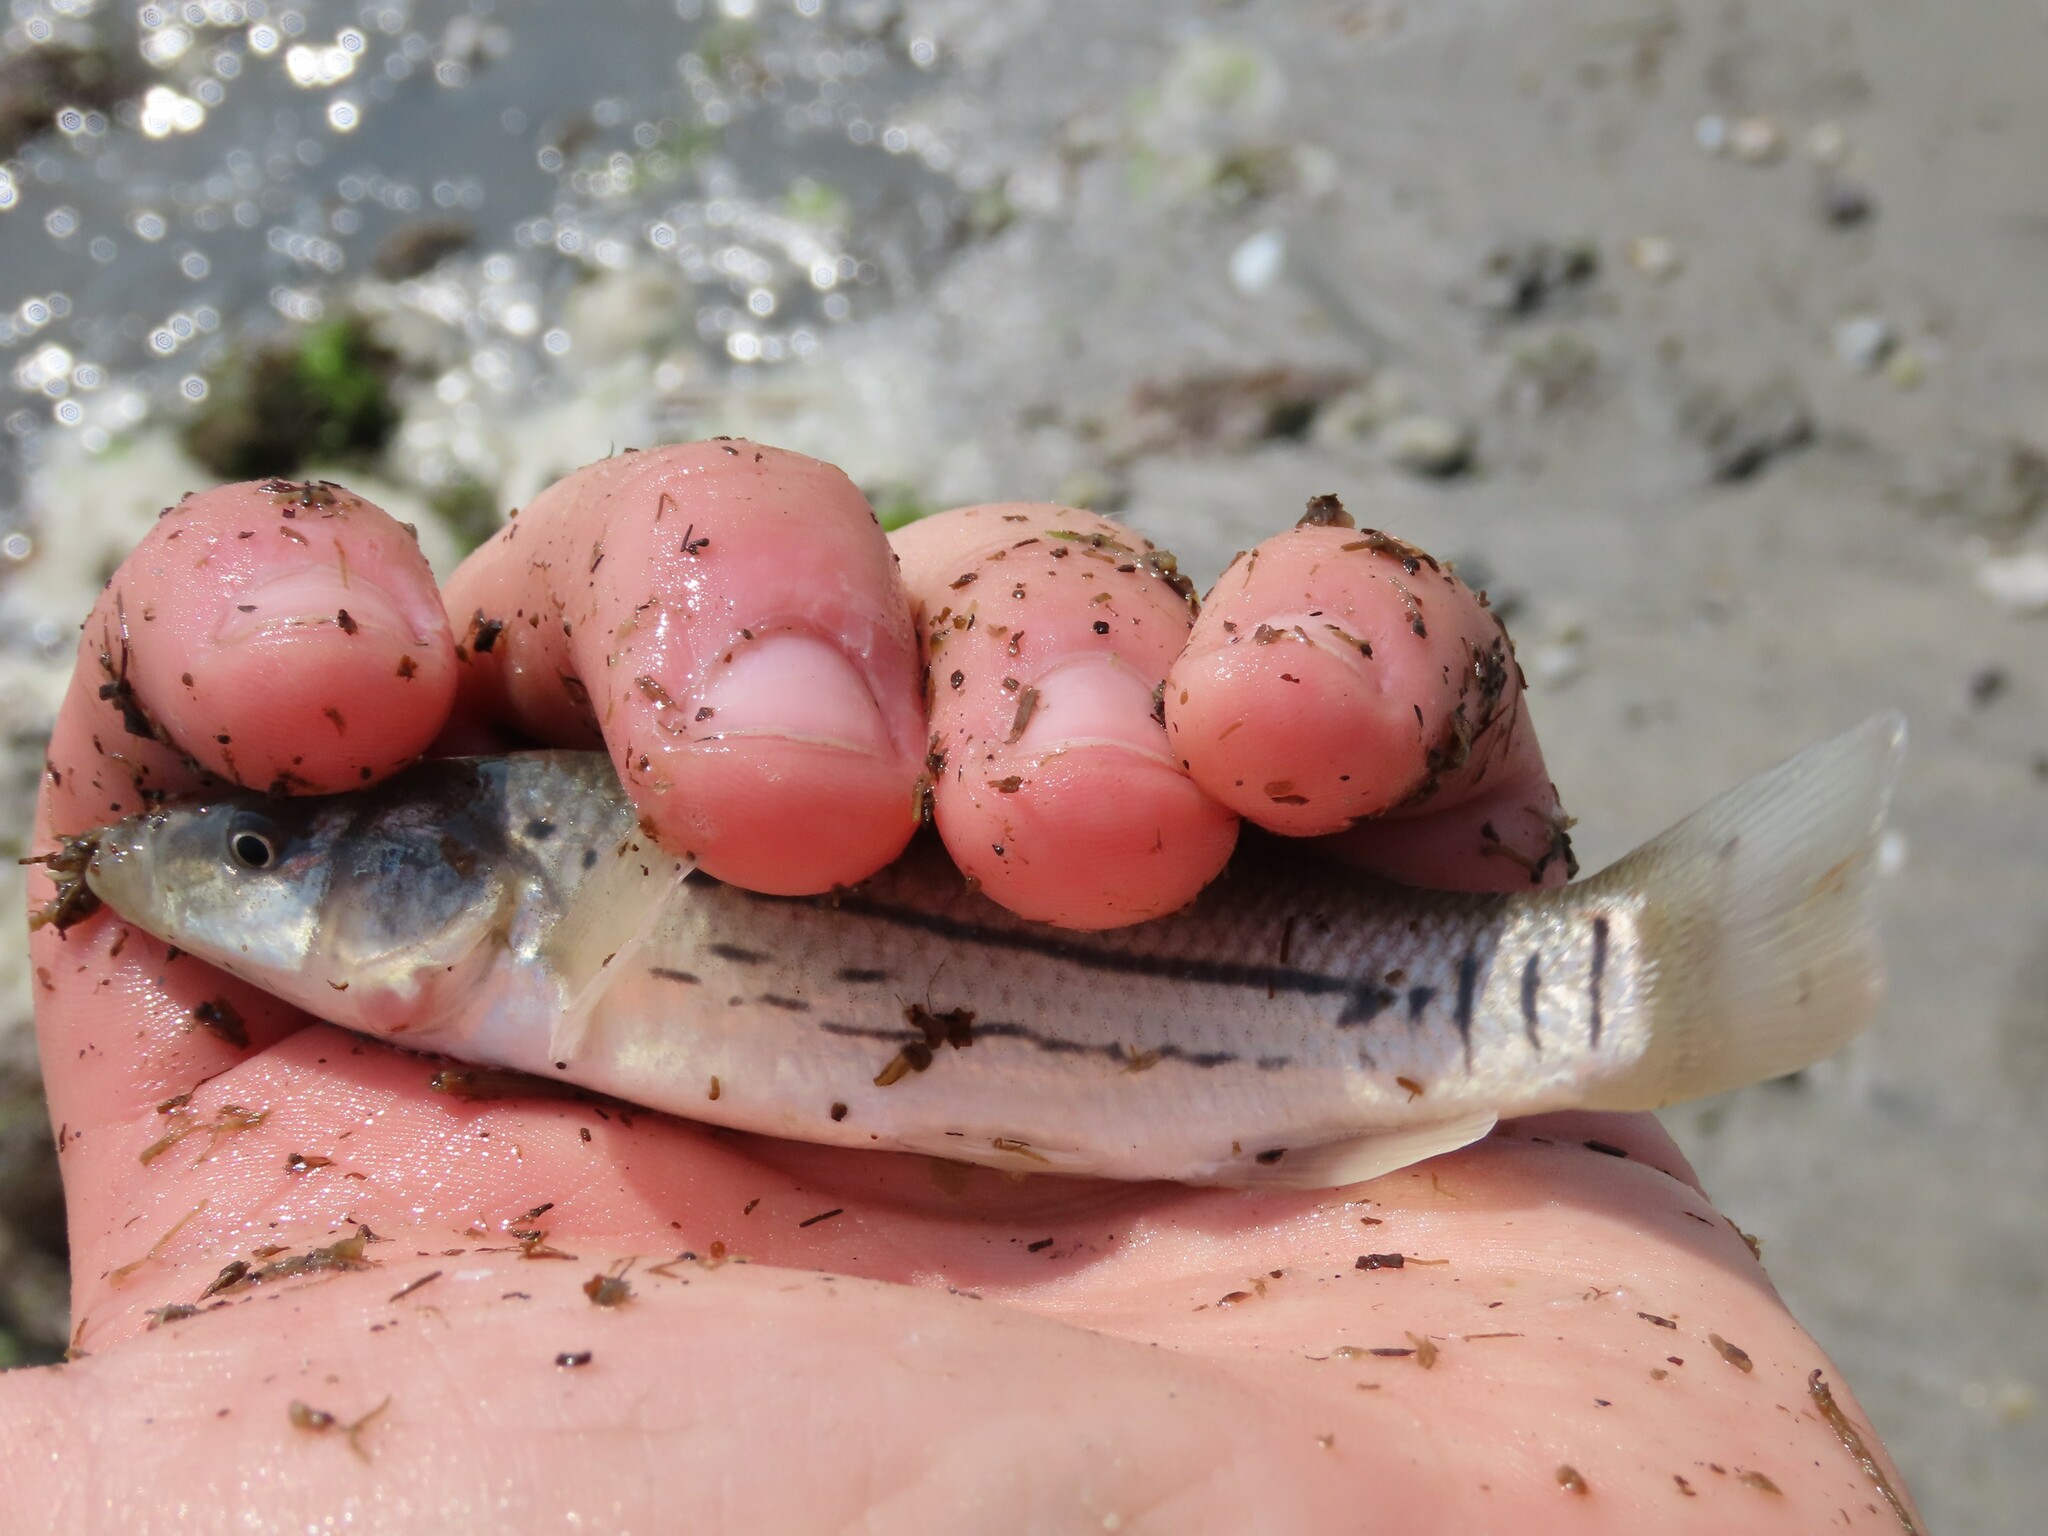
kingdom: Animalia
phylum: Chordata
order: Cyprinodontiformes
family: Fundulidae
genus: Fundulus
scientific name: Fundulus majalis
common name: Striped killifish
